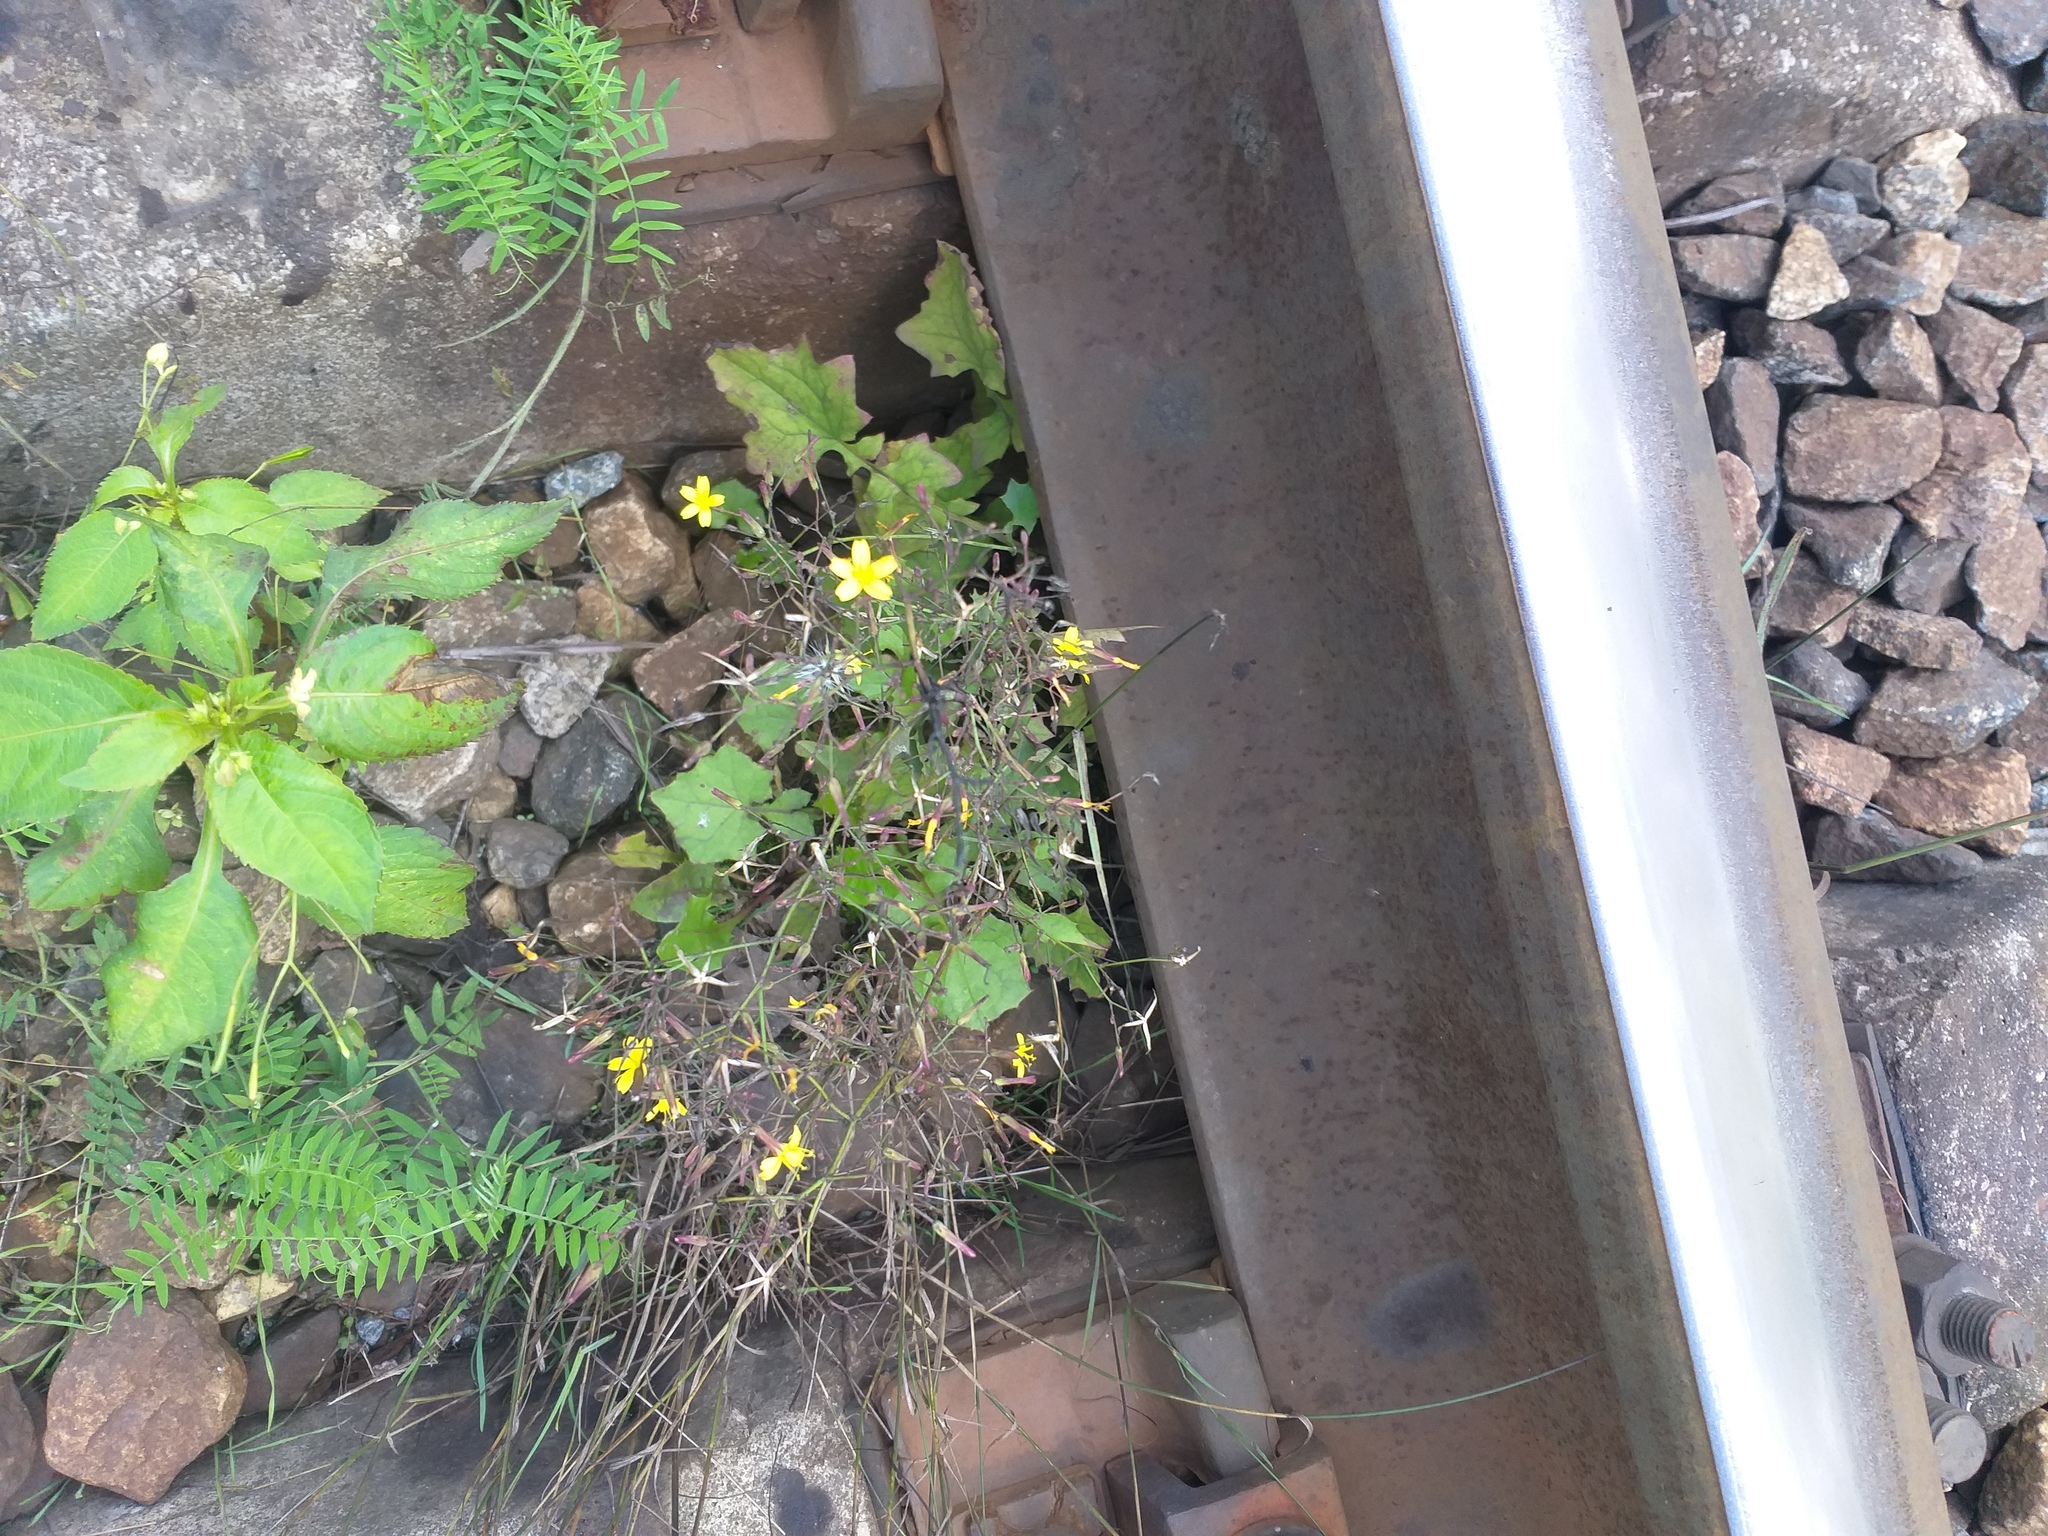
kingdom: Plantae
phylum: Tracheophyta
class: Magnoliopsida
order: Asterales
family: Asteraceae
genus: Mycelis
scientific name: Mycelis muralis
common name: Wall lettuce
